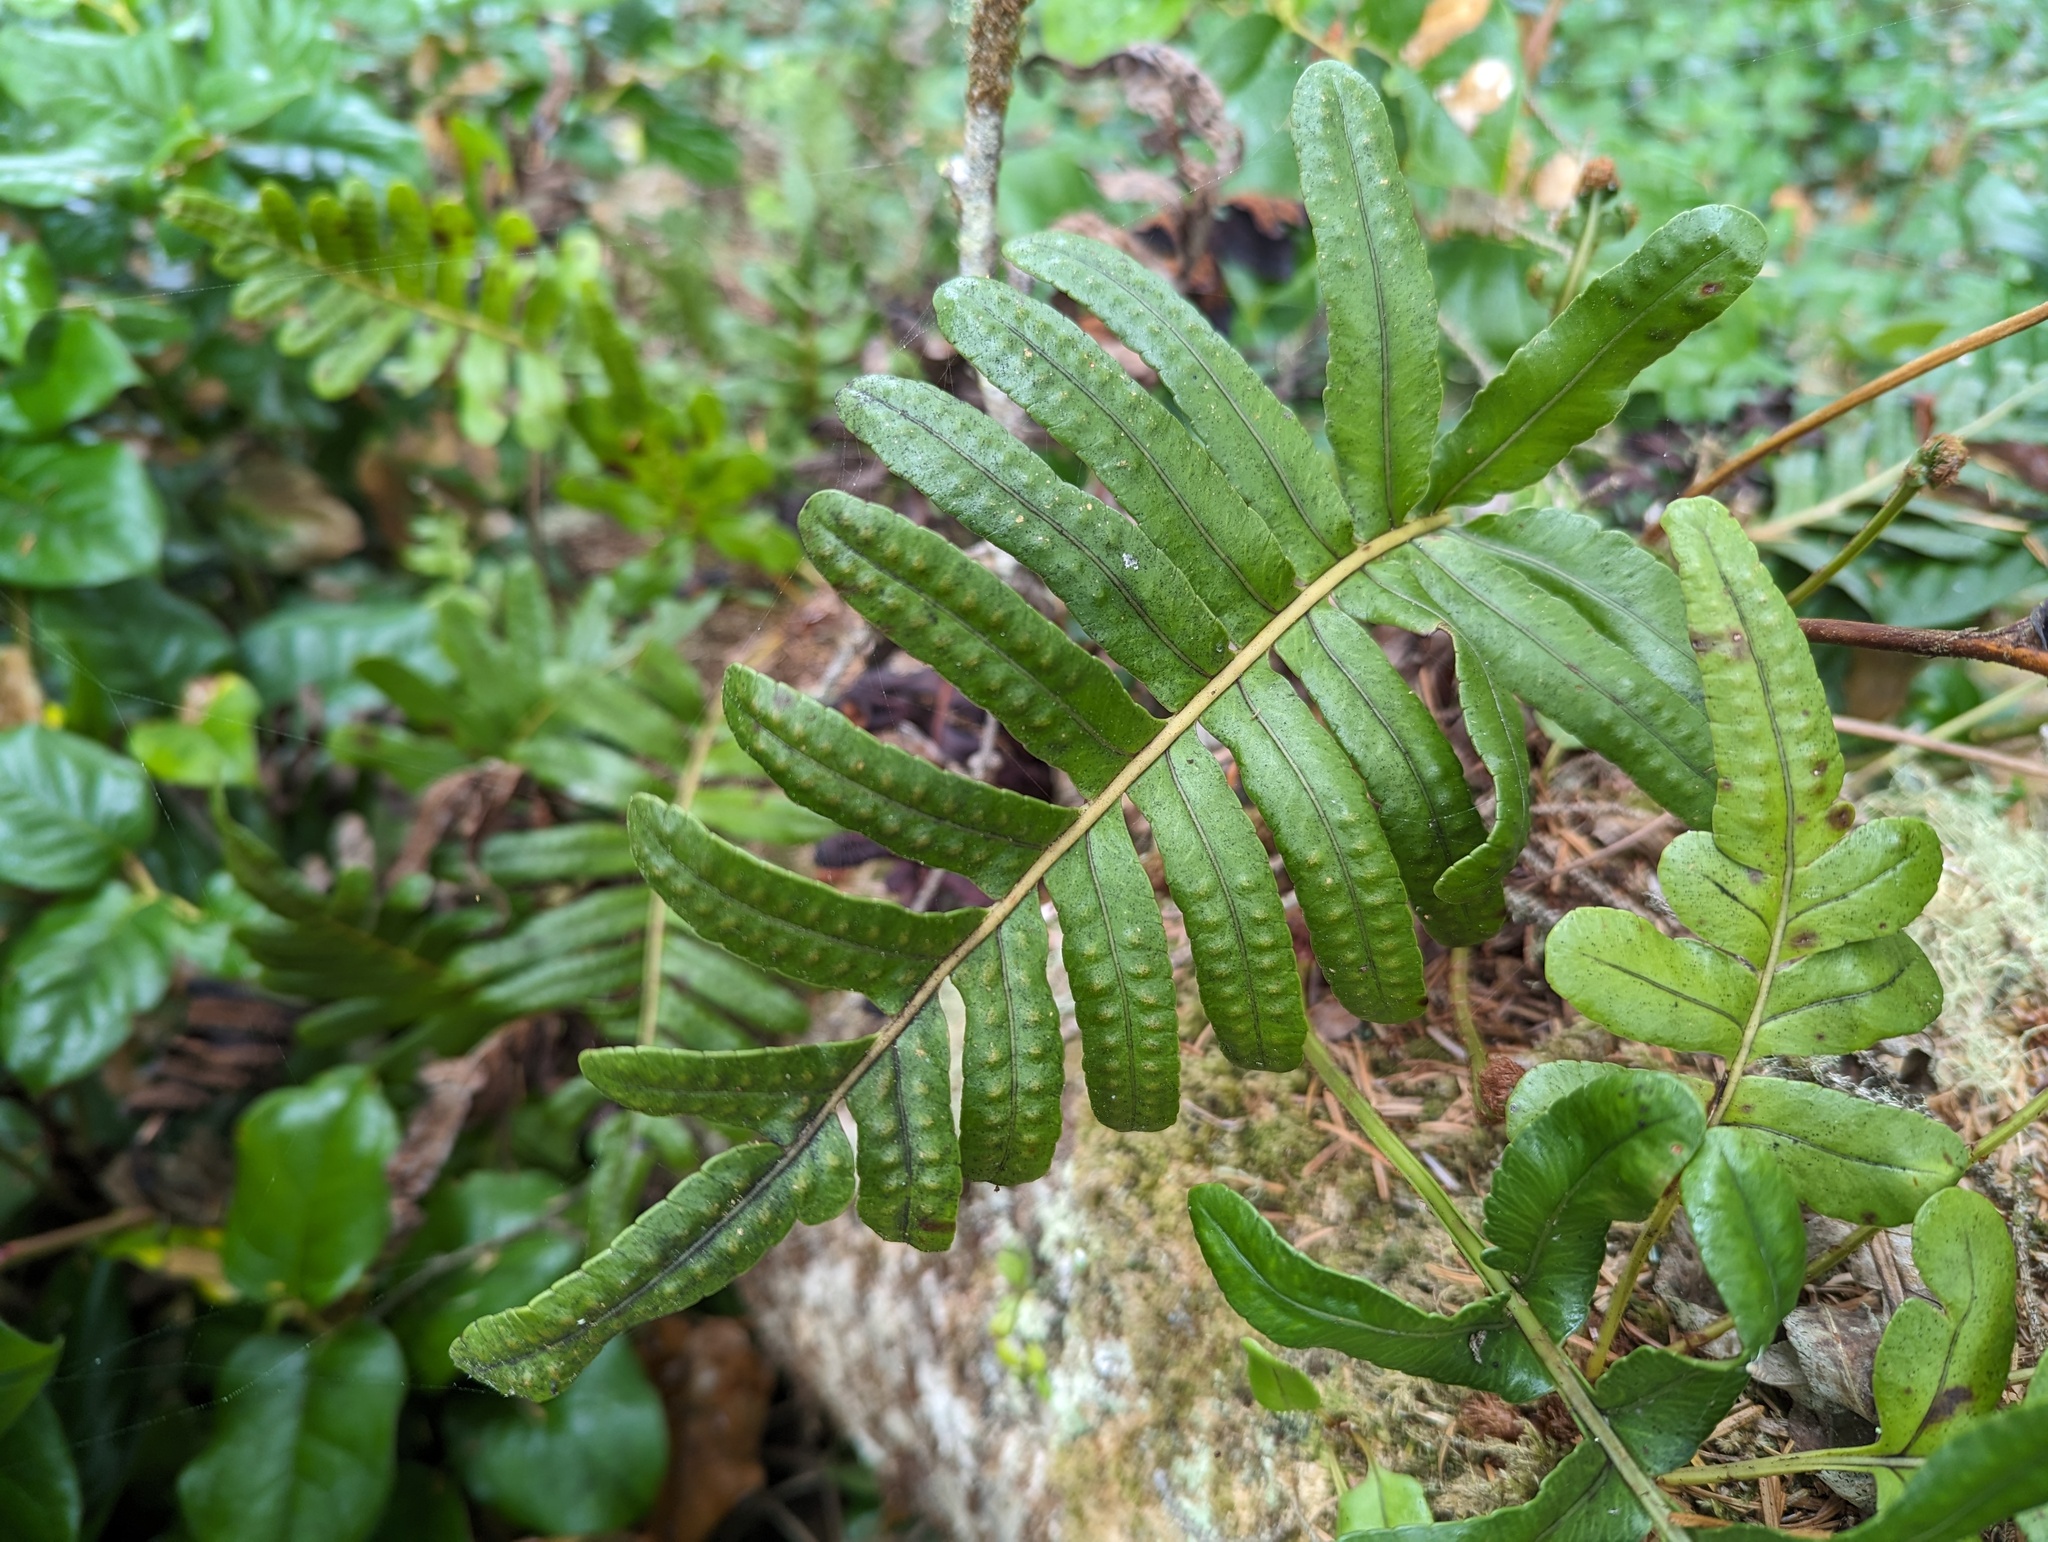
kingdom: Plantae
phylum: Tracheophyta
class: Polypodiopsida
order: Polypodiales
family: Polypodiaceae
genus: Polypodium
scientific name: Polypodium scouleri
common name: Scouler's polypody
